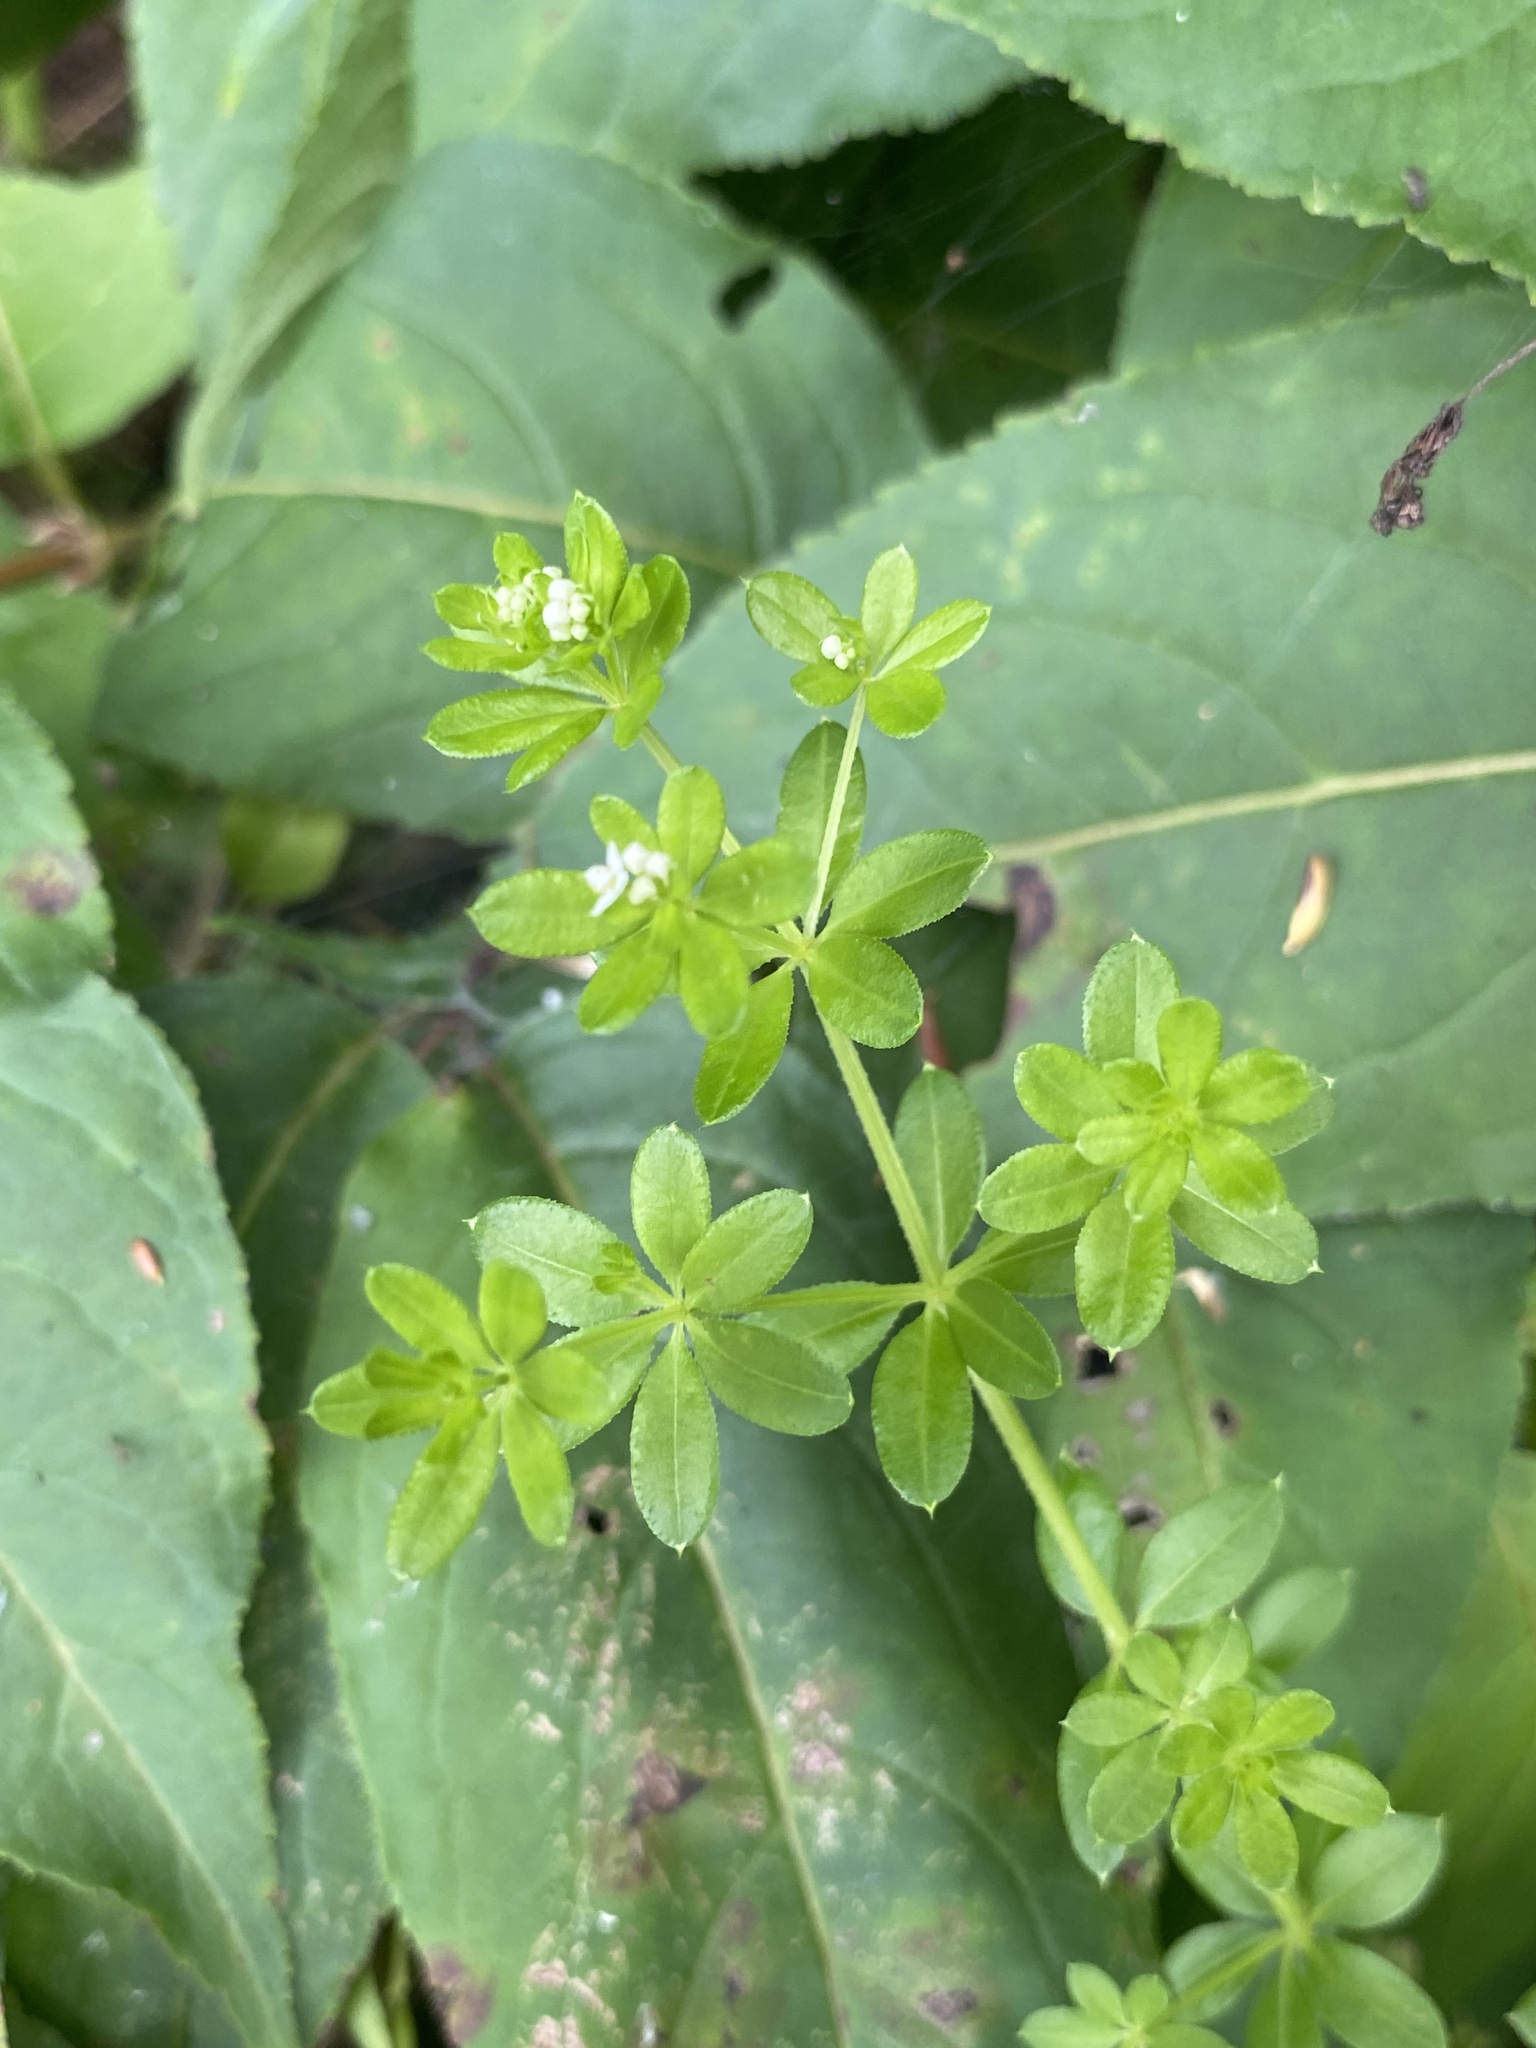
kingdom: Plantae
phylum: Tracheophyta
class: Magnoliopsida
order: Gentianales
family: Rubiaceae
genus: Galium
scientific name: Galium asprellum
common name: Rough bedstraw
